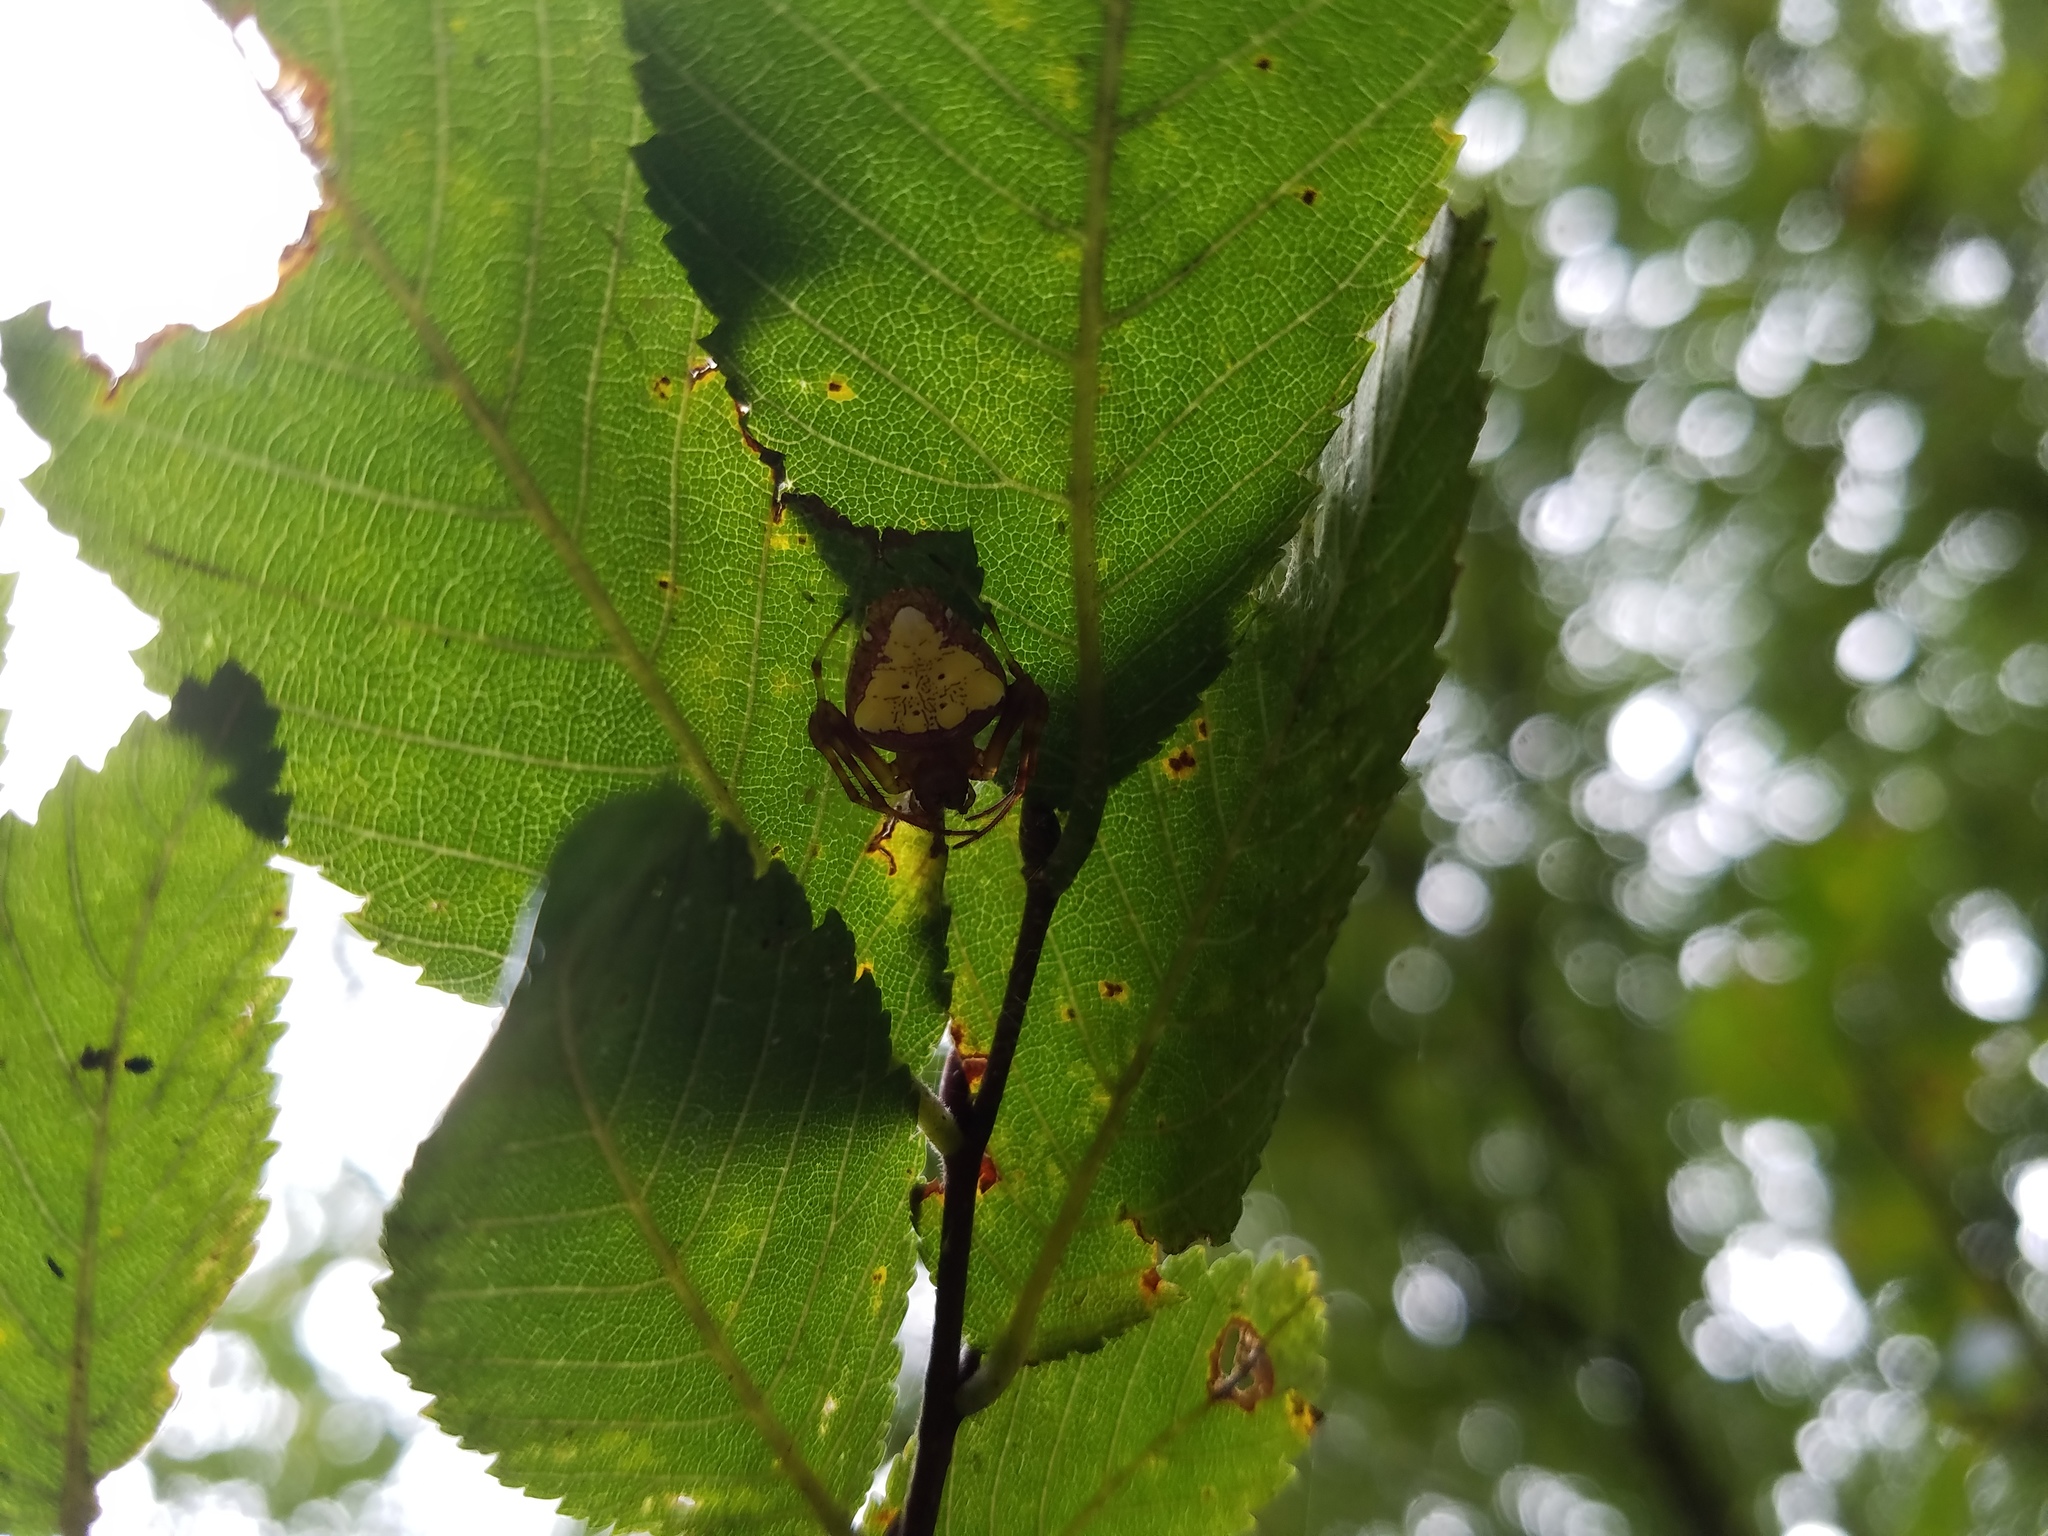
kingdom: Animalia
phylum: Arthropoda
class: Arachnida
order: Araneae
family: Araneidae
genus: Verrucosa
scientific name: Verrucosa arenata
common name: Orb weavers
